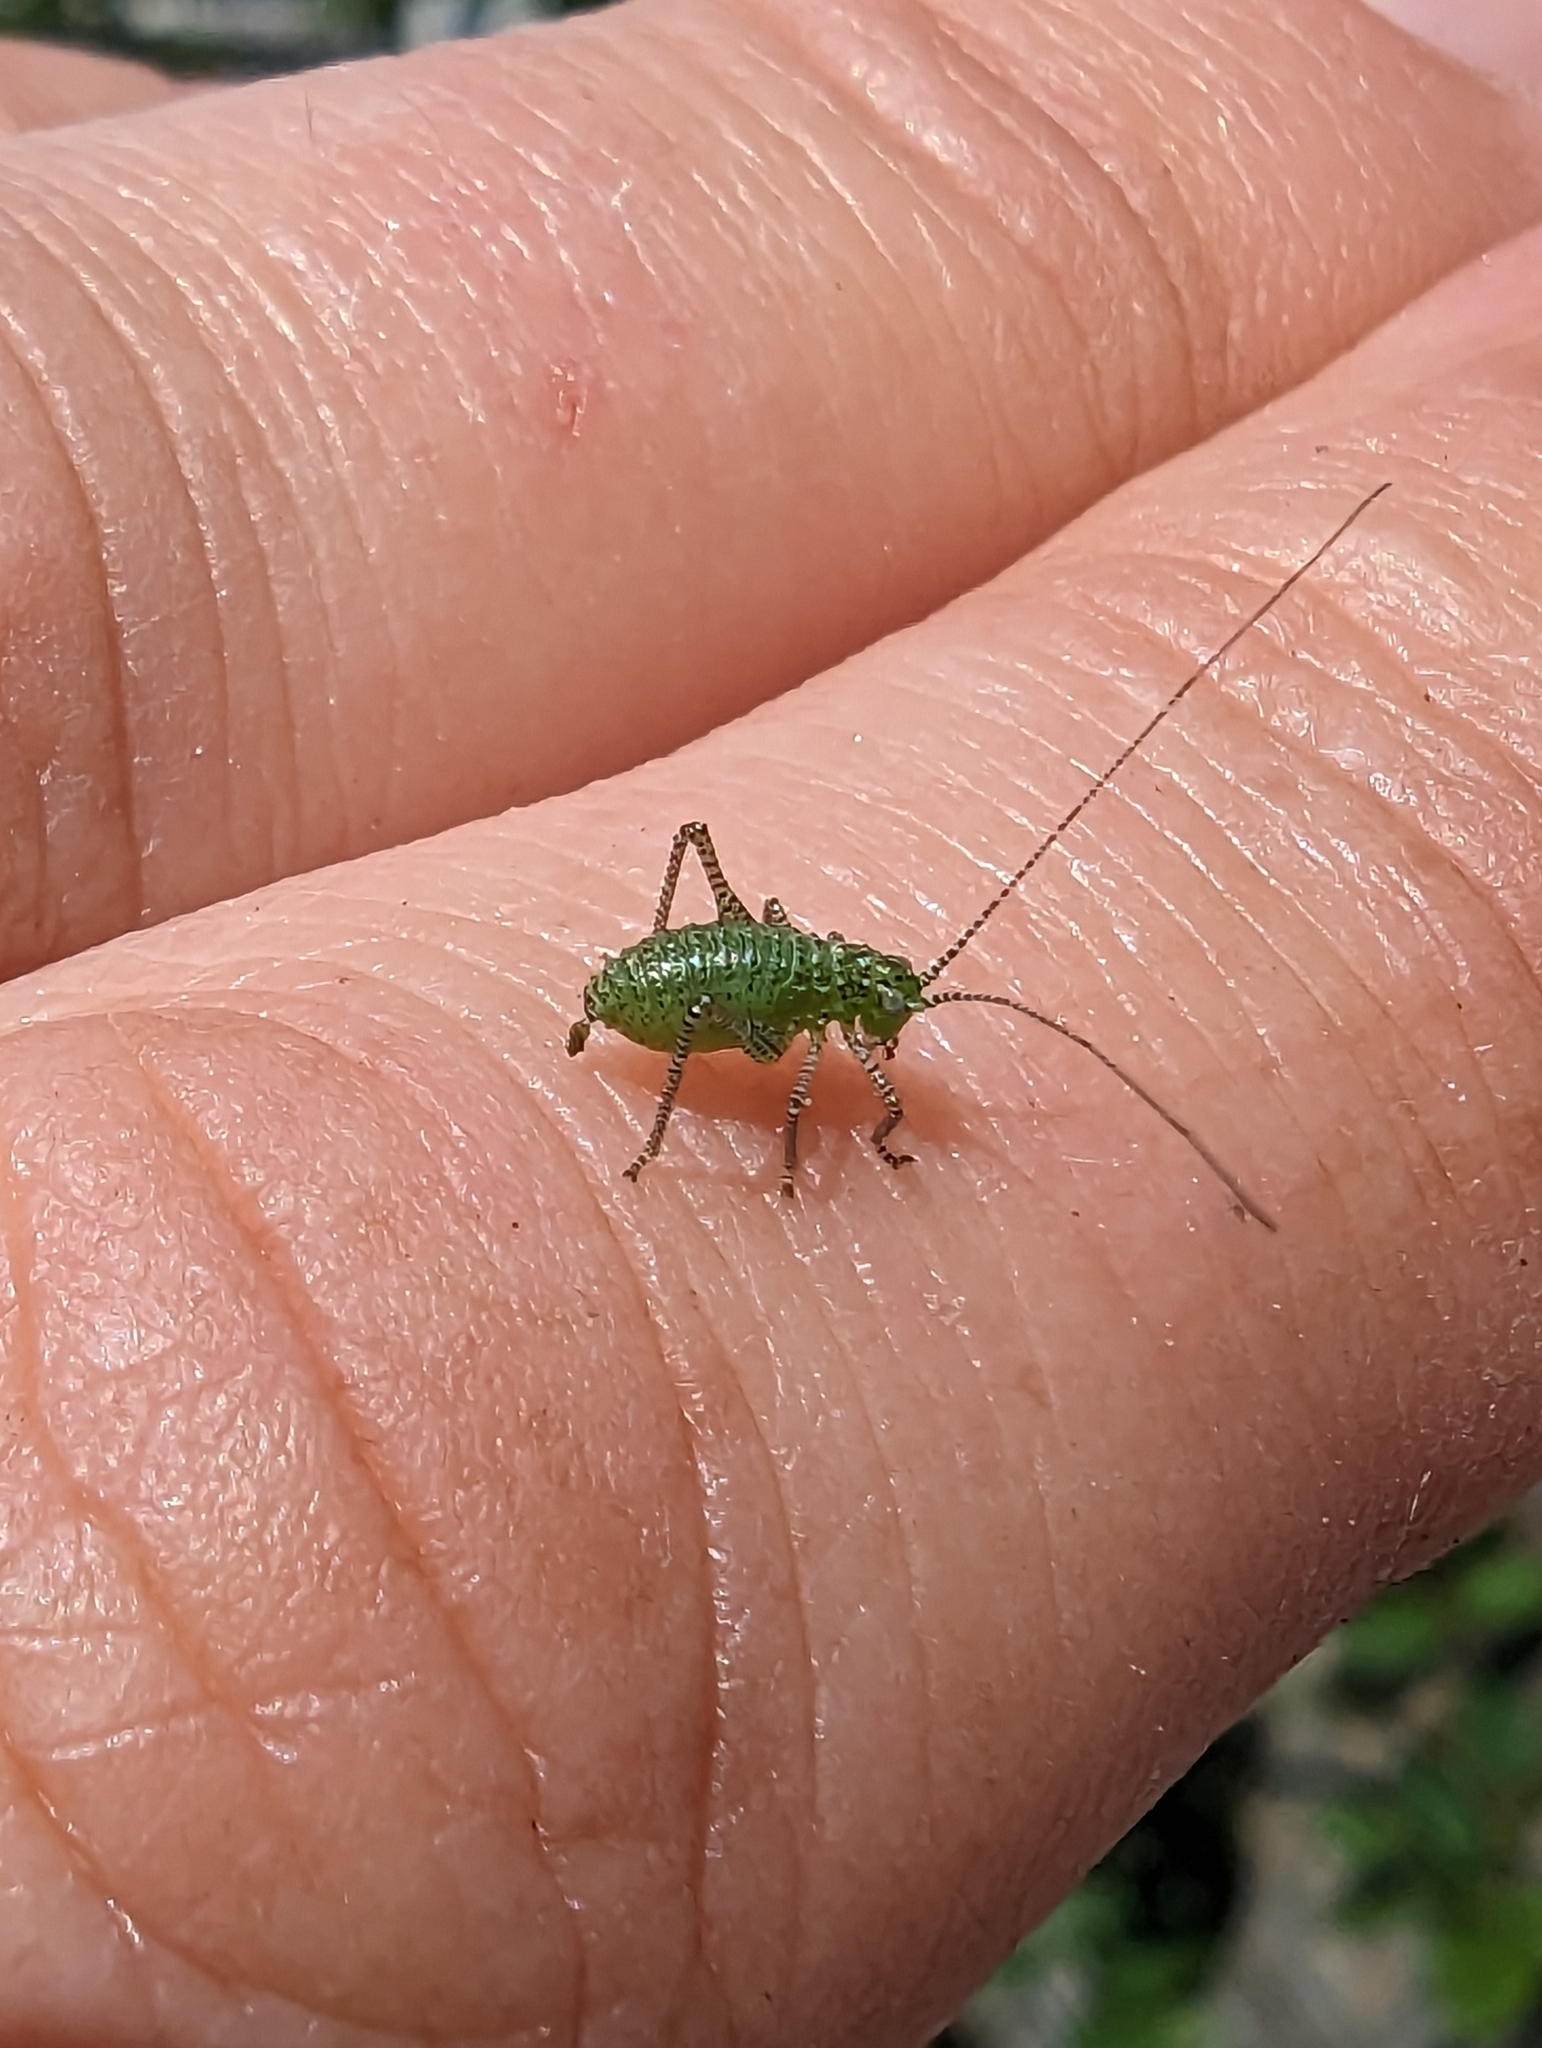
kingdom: Animalia
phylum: Arthropoda
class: Insecta
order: Orthoptera
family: Tettigoniidae
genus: Leptophyes
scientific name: Leptophyes punctatissima
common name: Speckled bush-cricket
